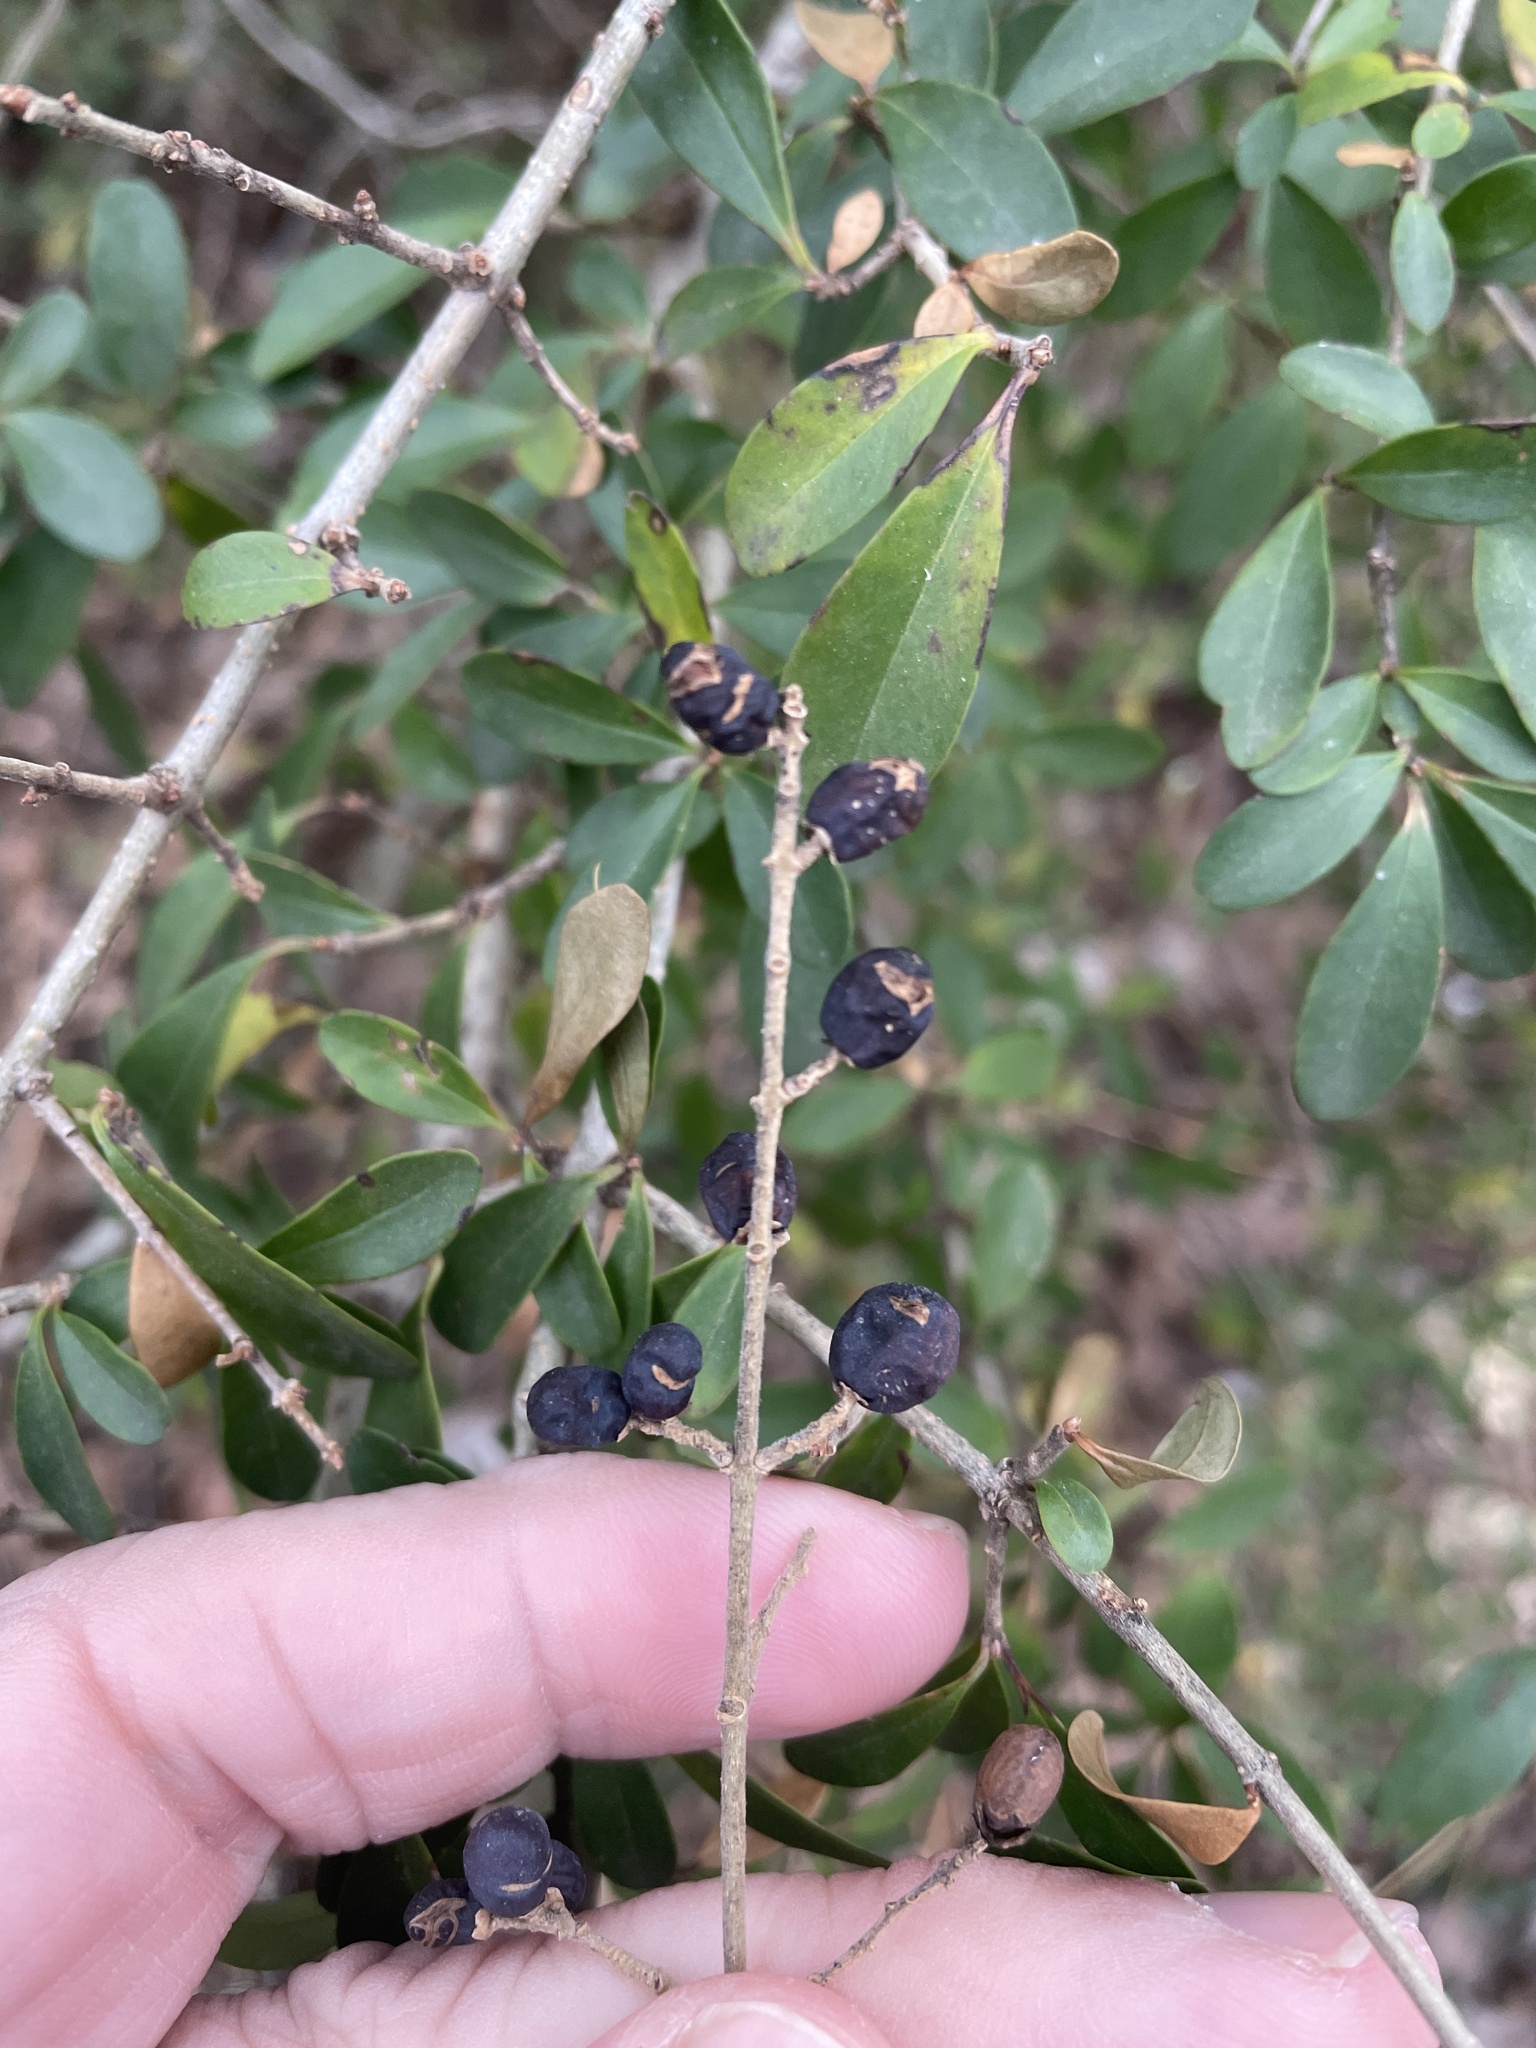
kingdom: Plantae
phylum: Tracheophyta
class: Magnoliopsida
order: Lamiales
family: Oleaceae
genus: Ligustrum
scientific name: Ligustrum quihoui
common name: Waxyleaf privet
